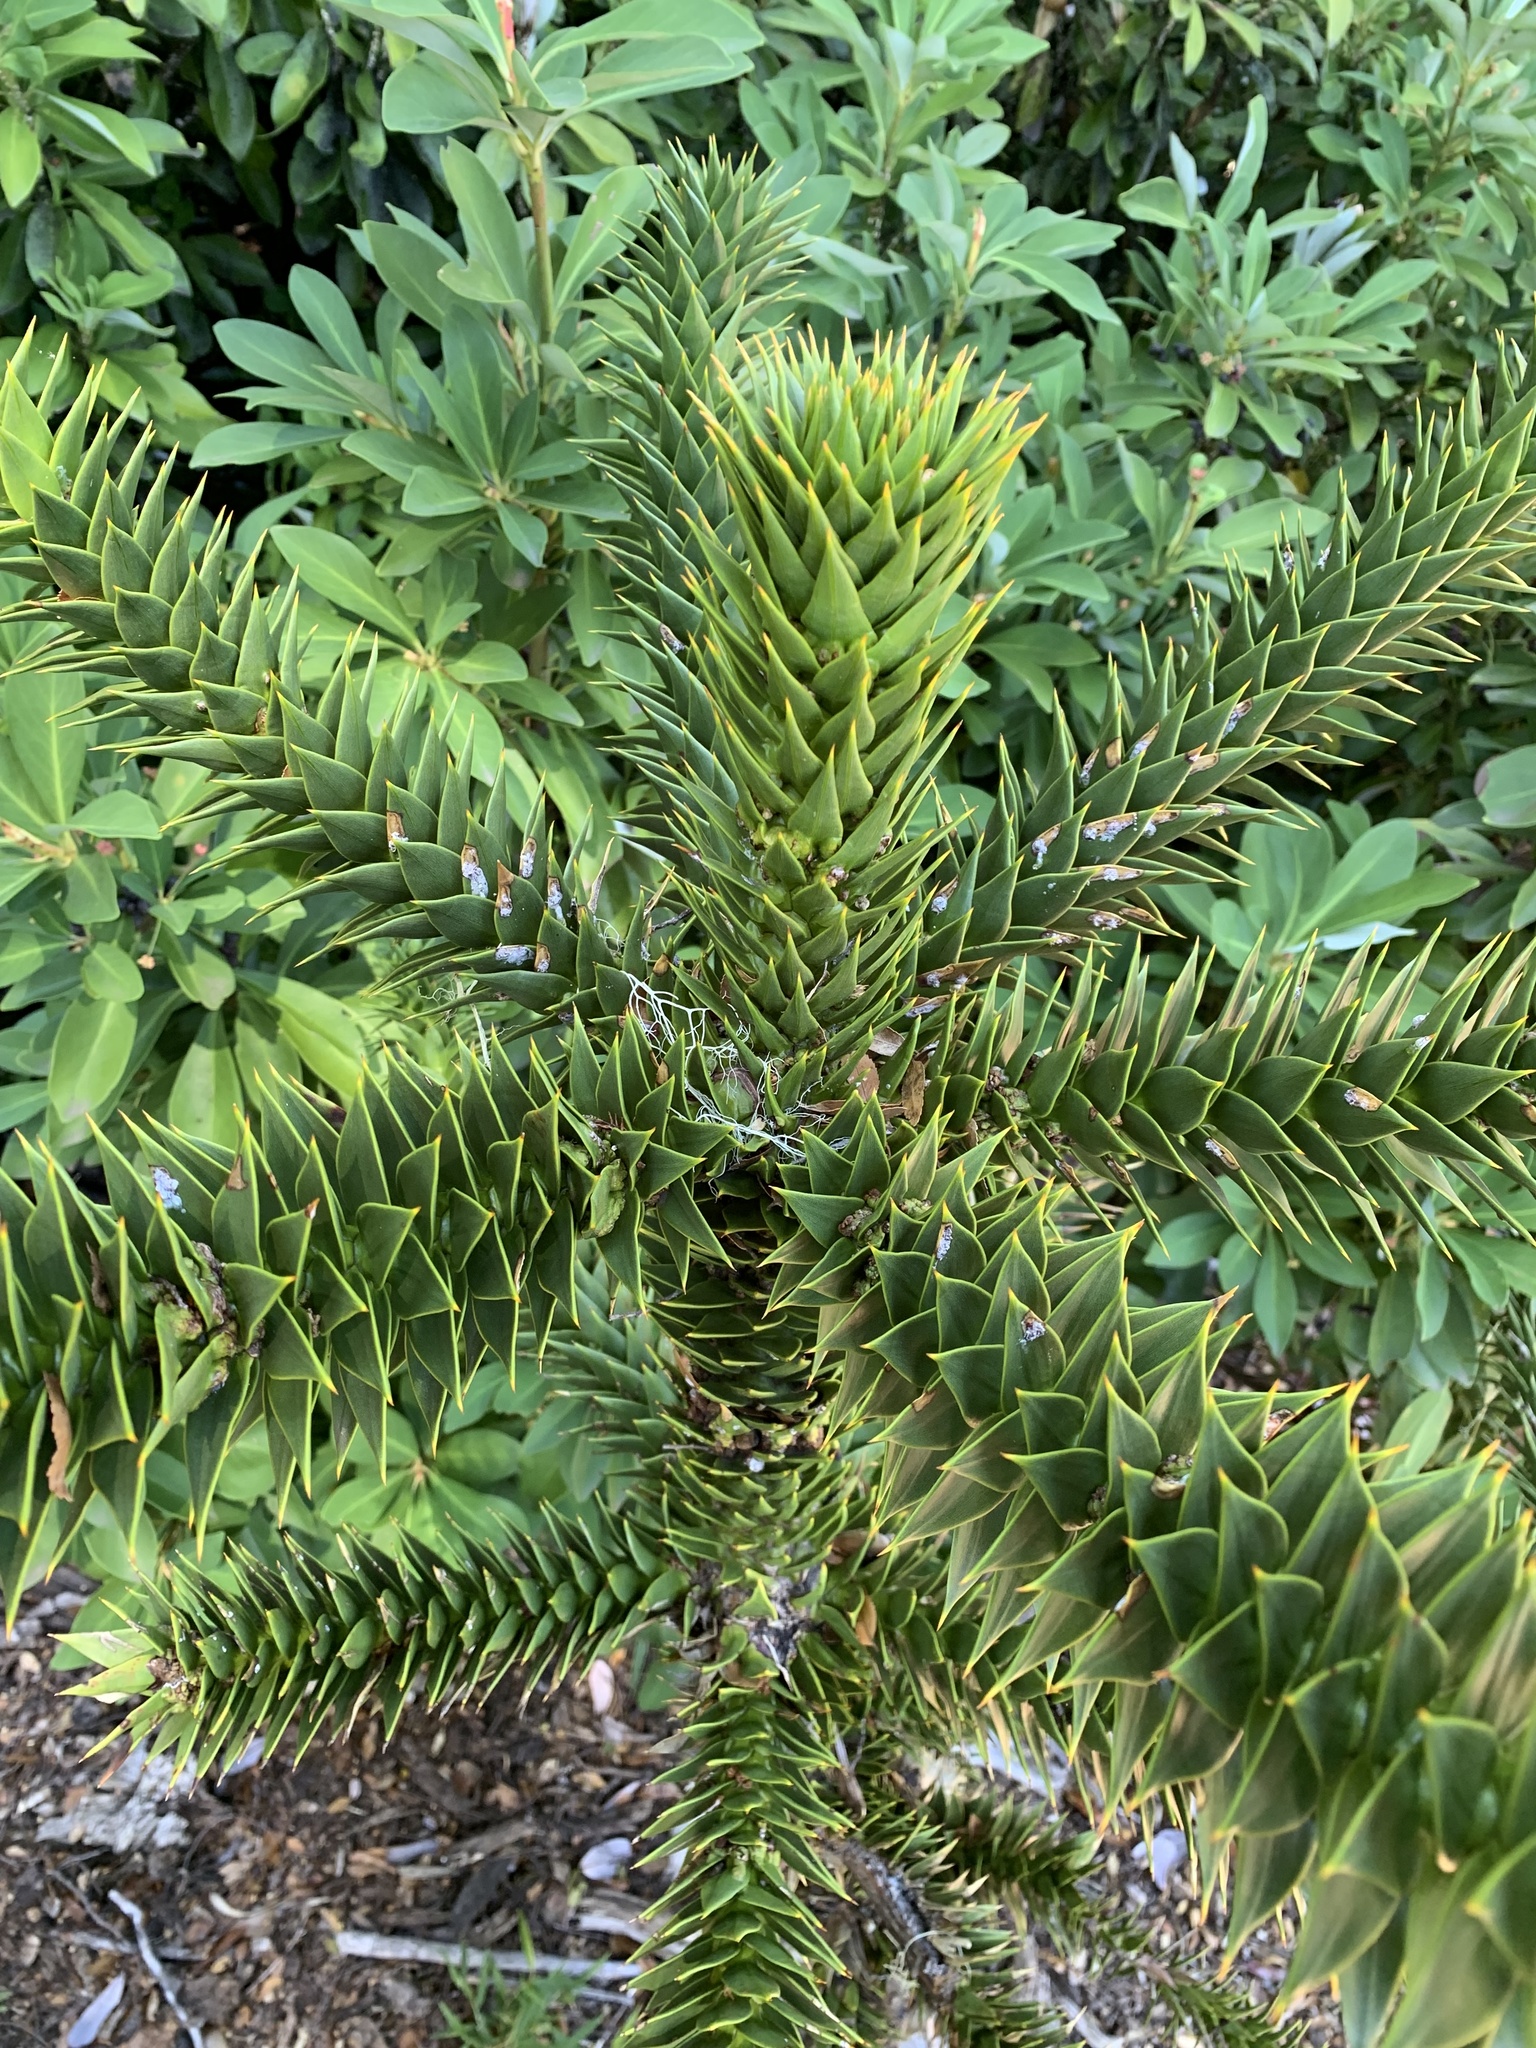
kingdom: Plantae
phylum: Tracheophyta
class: Pinopsida
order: Pinales
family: Araucariaceae
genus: Araucaria
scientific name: Araucaria araucana
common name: Monkey-puzzle
